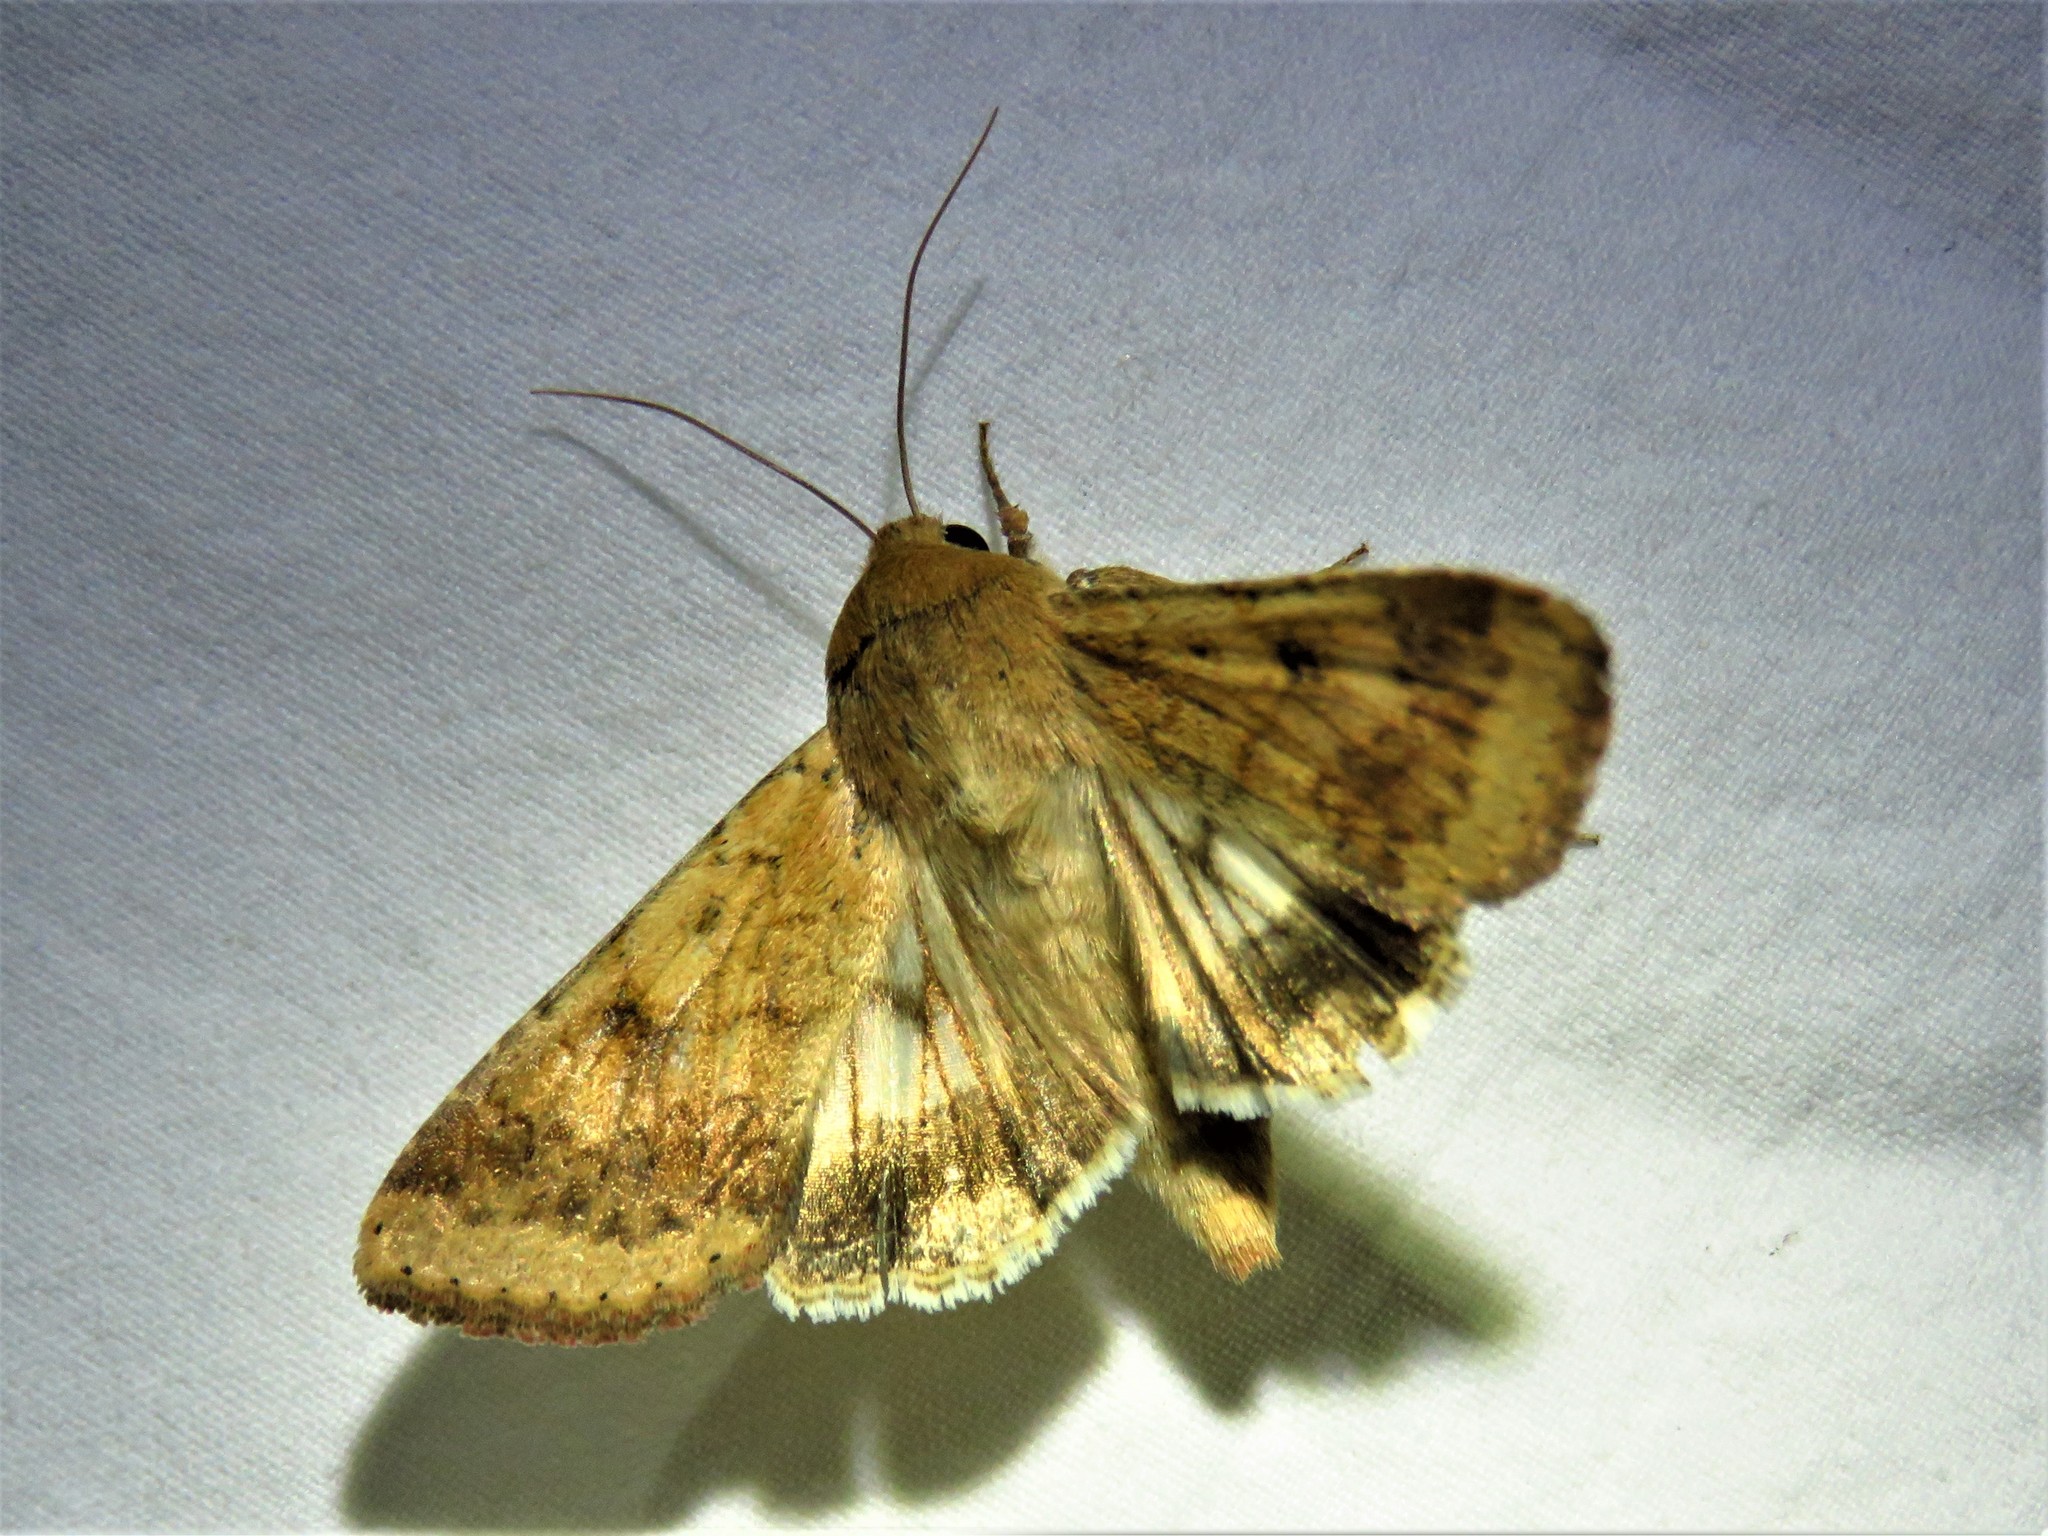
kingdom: Animalia
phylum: Arthropoda
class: Insecta
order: Lepidoptera
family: Noctuidae
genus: Helicoverpa
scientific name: Helicoverpa zea
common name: Bollworm
